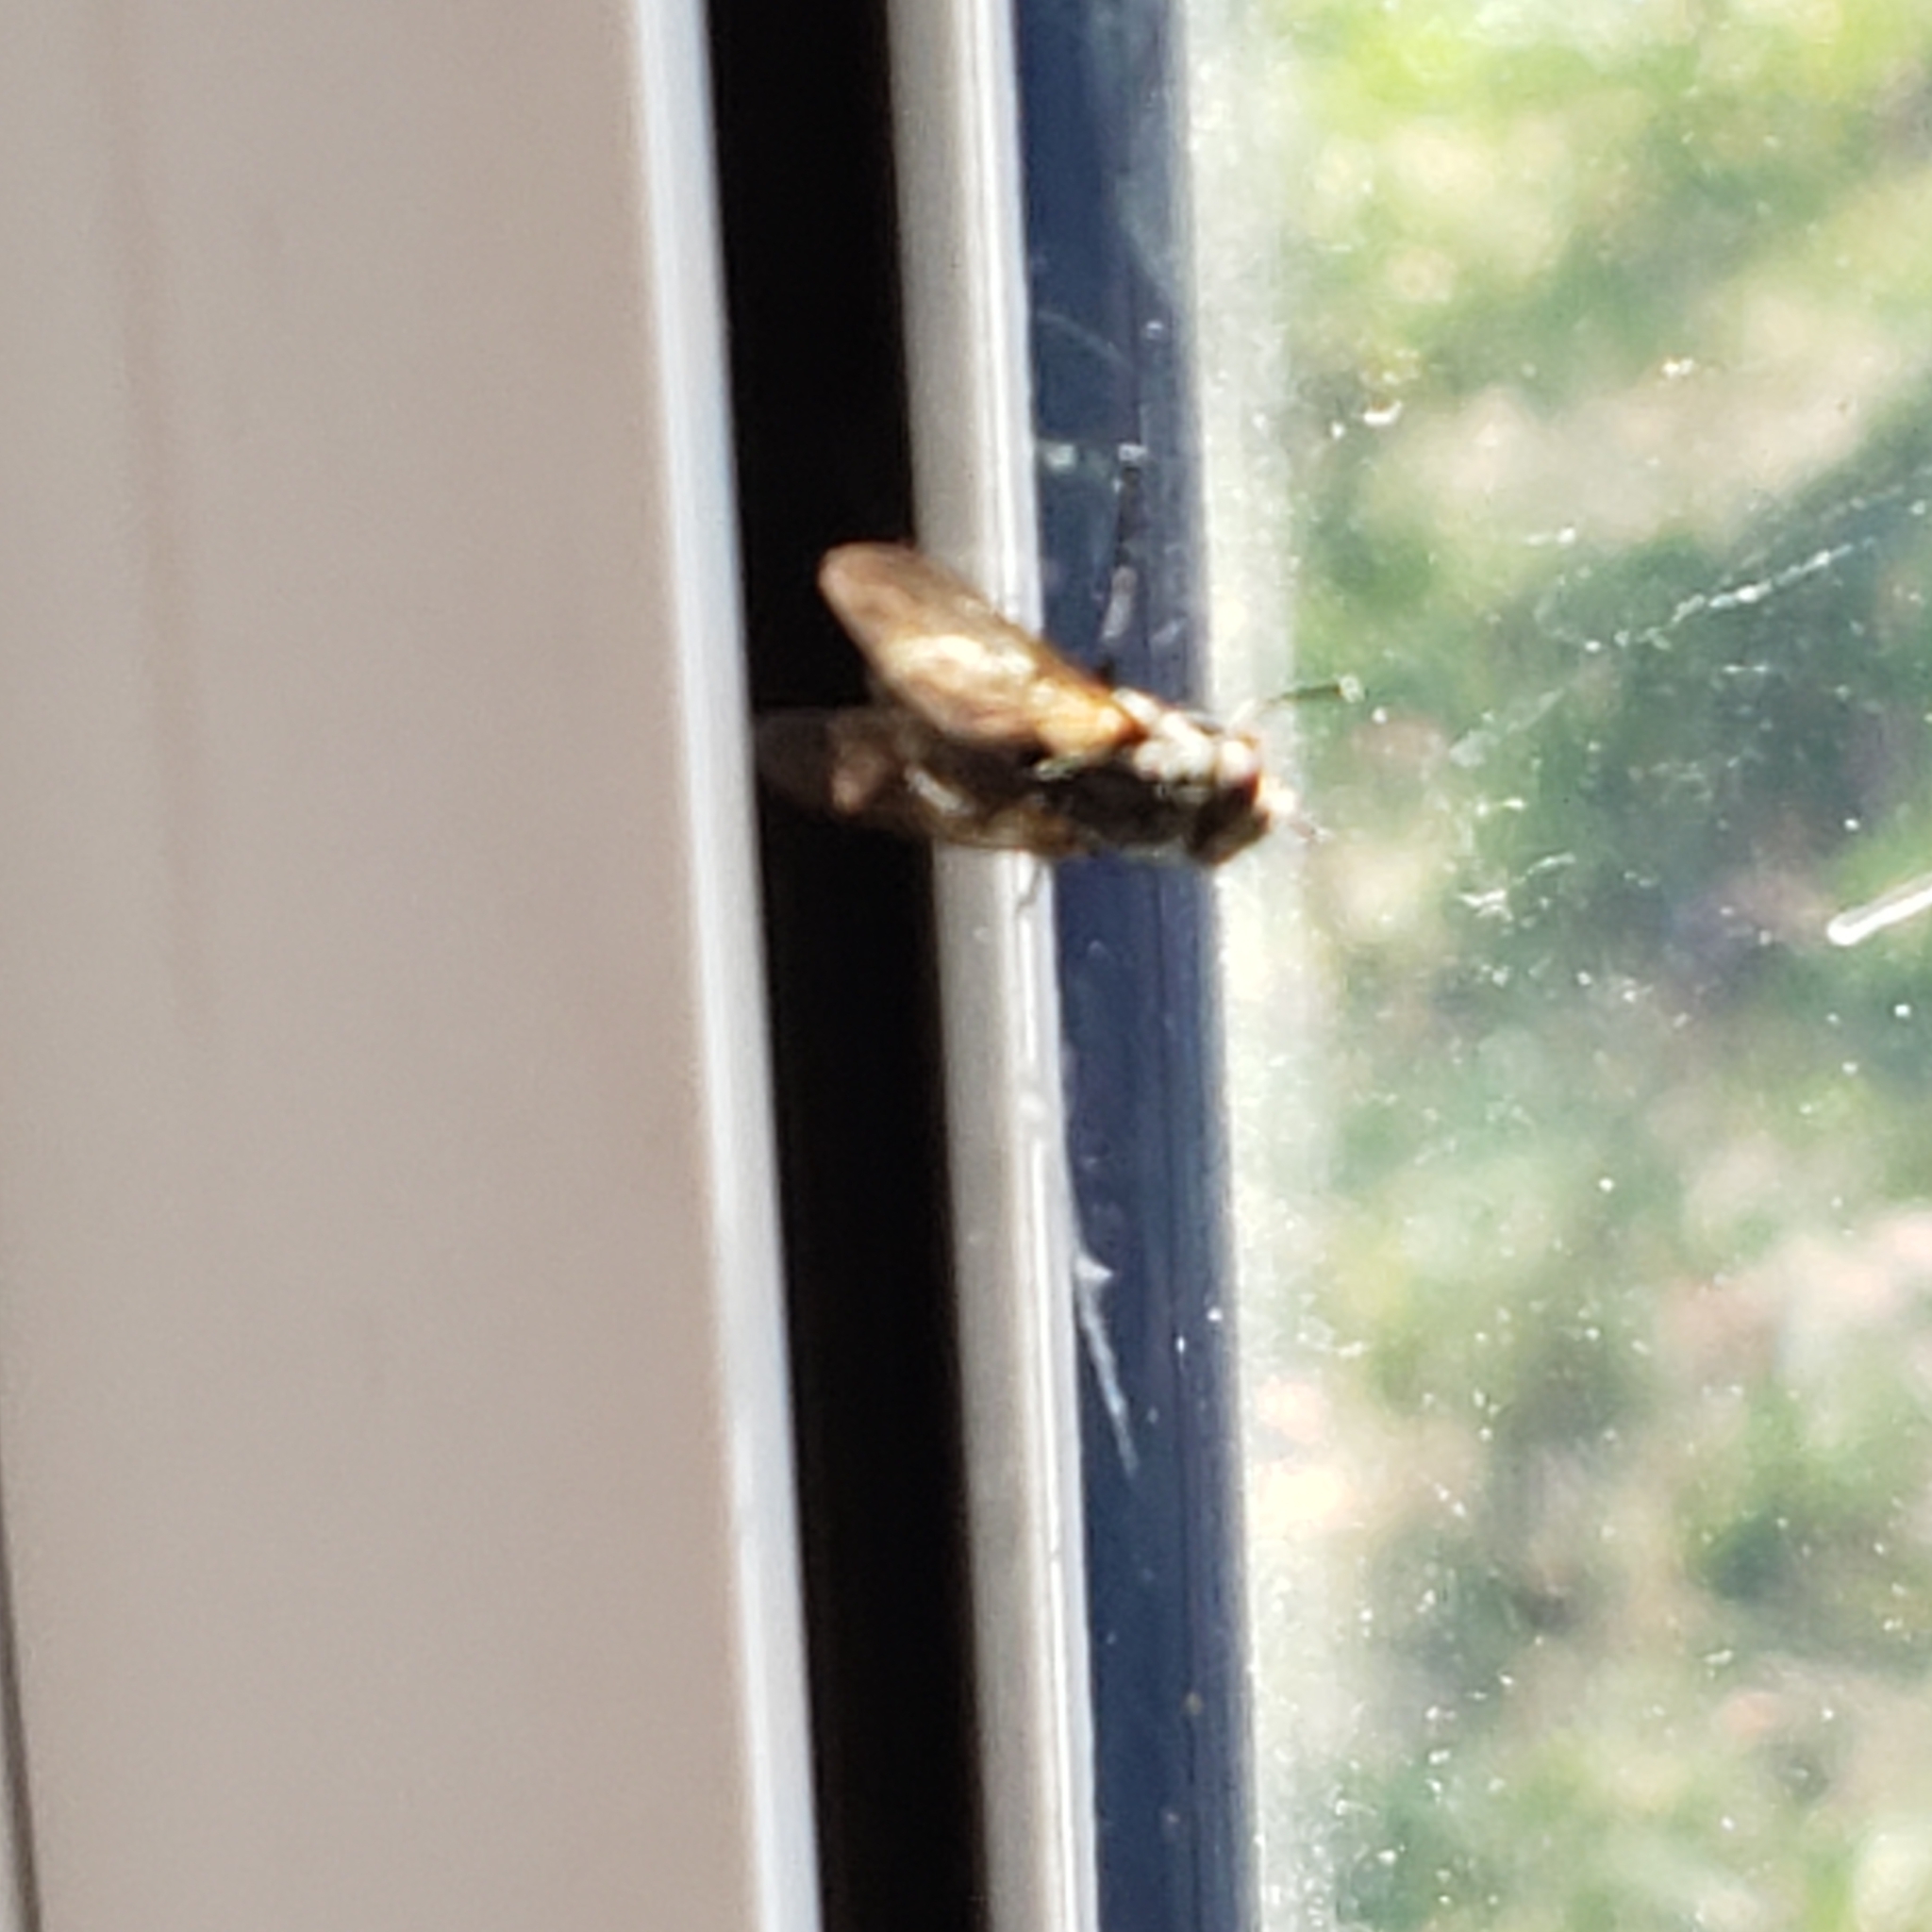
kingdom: Animalia
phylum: Arthropoda
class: Insecta
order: Diptera
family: Muscidae
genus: Musca
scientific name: Musca domestica
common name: House fly
